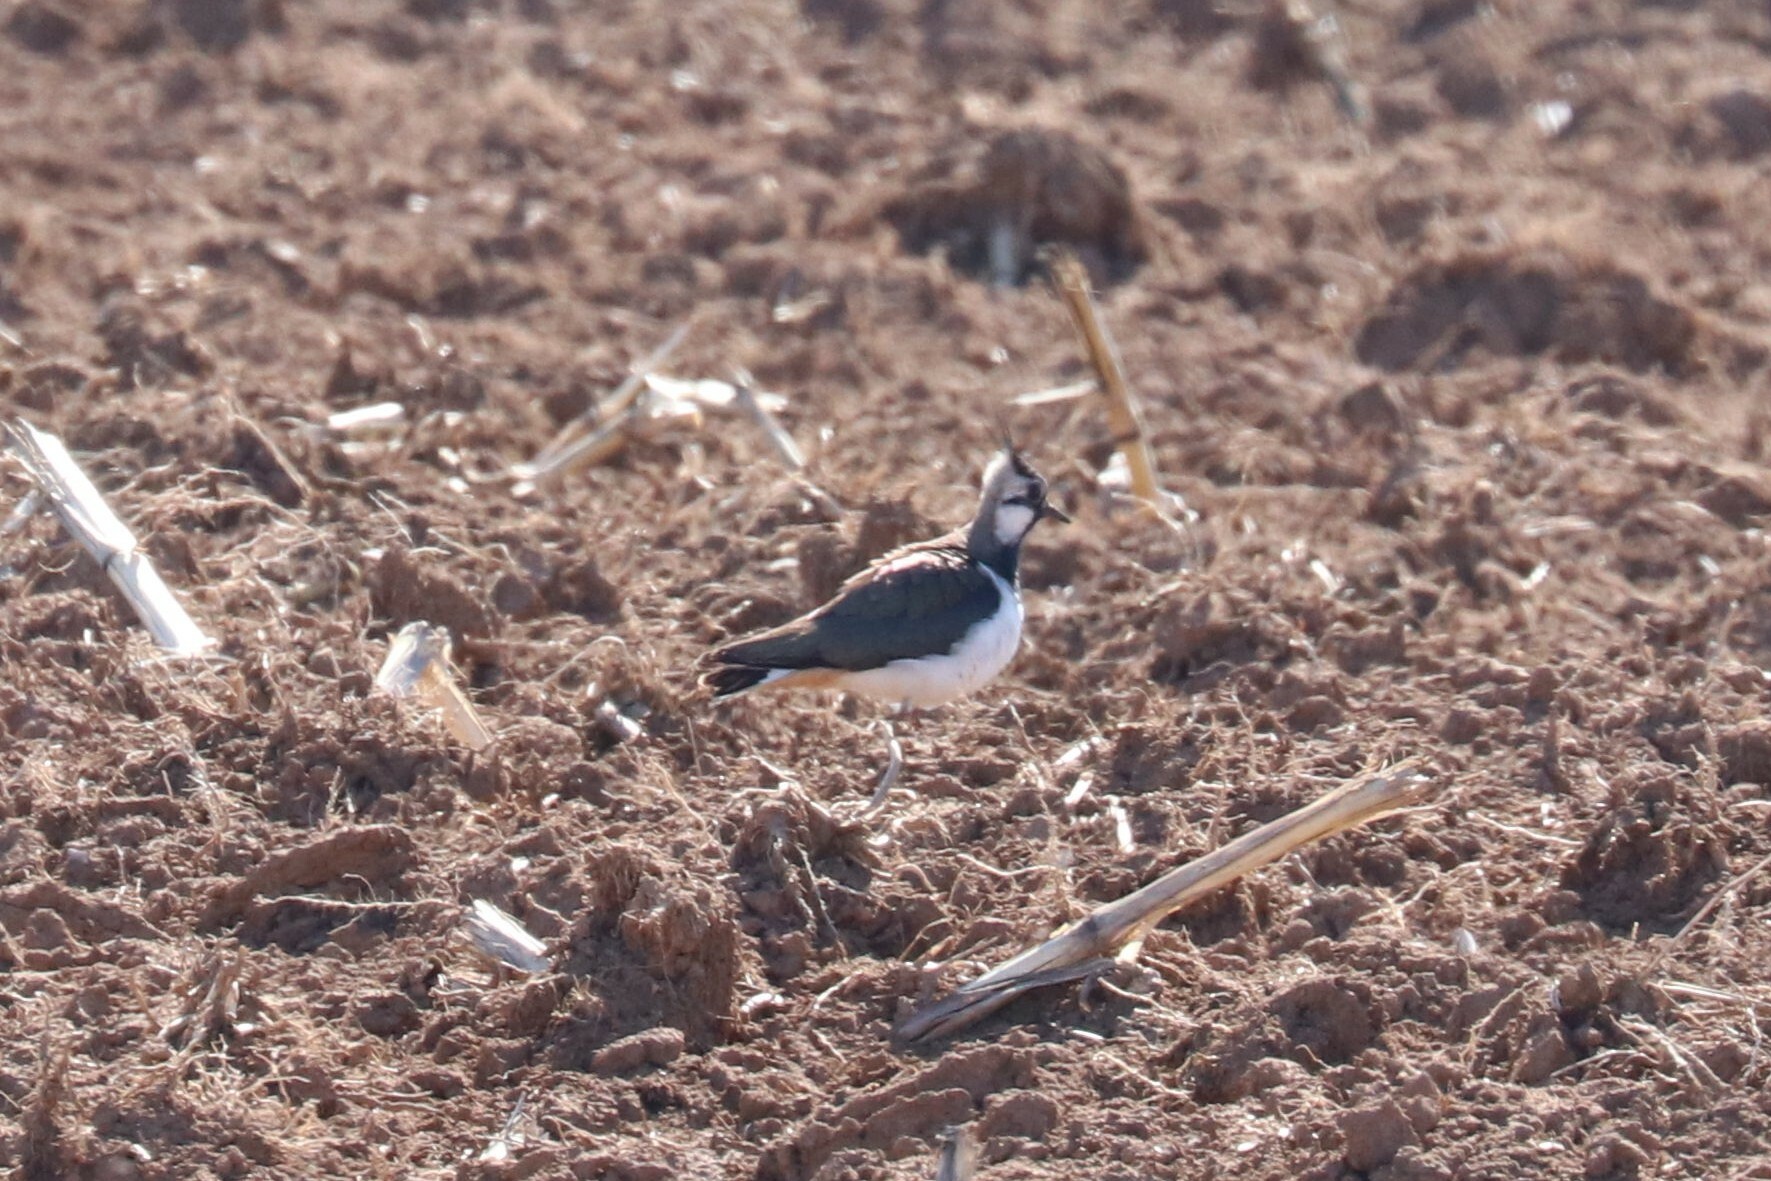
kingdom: Animalia
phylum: Chordata
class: Aves
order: Charadriiformes
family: Charadriidae
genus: Vanellus
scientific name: Vanellus vanellus
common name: Northern lapwing
